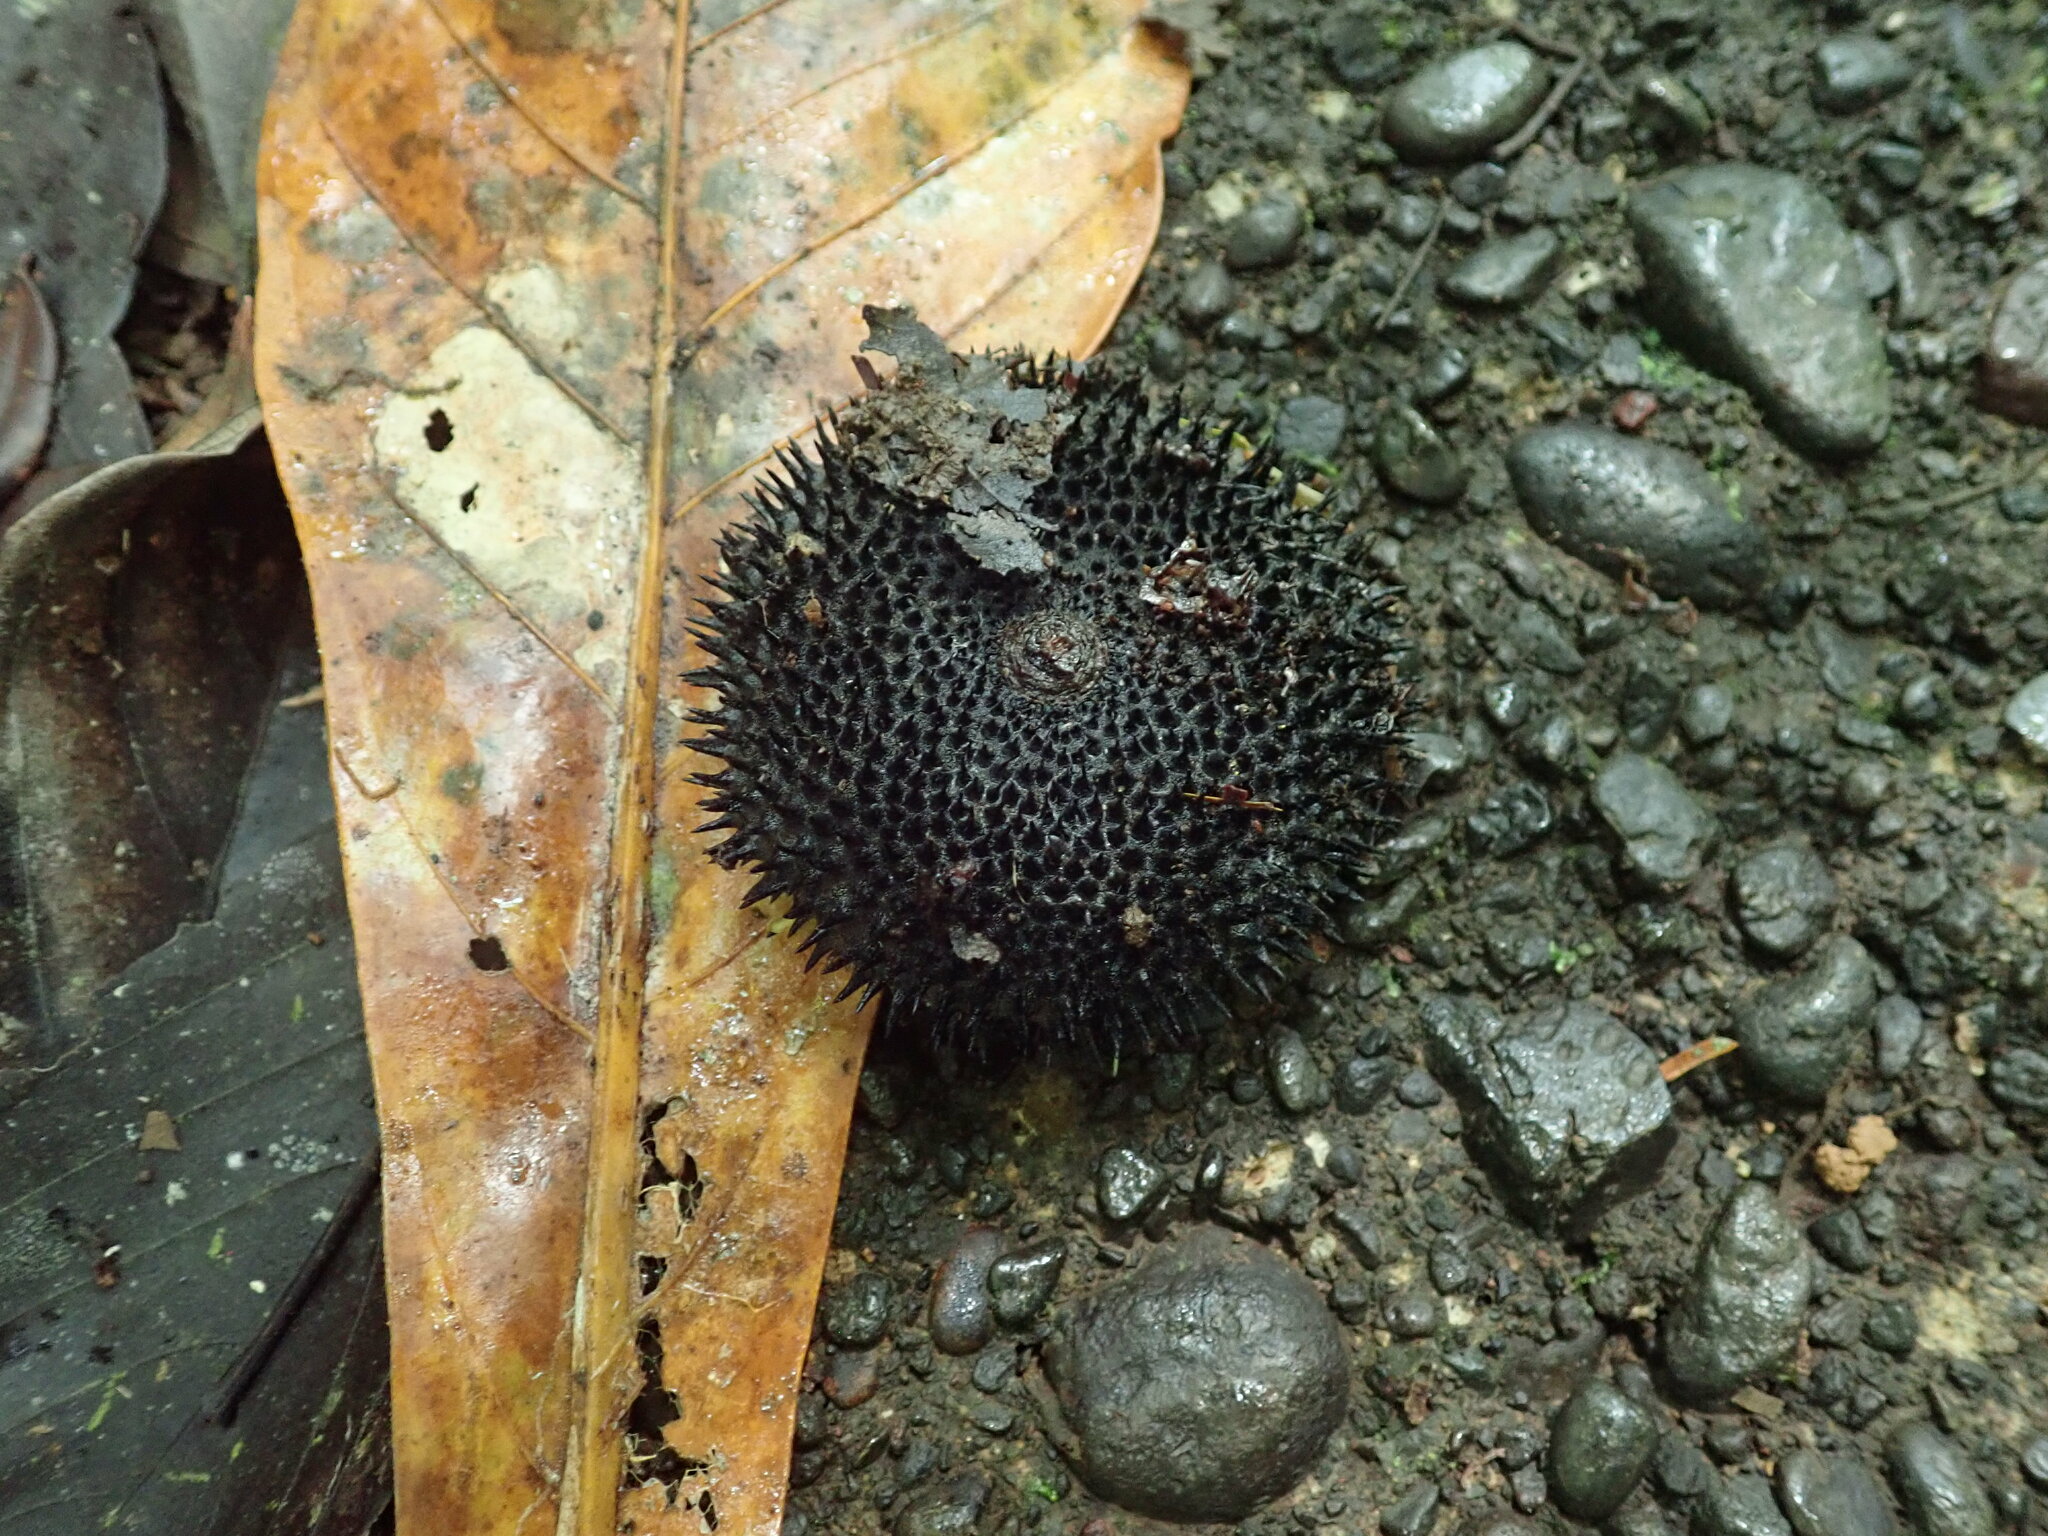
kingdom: Plantae
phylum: Tracheophyta
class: Magnoliopsida
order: Malvales
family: Malvaceae
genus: Apeiba
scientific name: Apeiba membranacea
